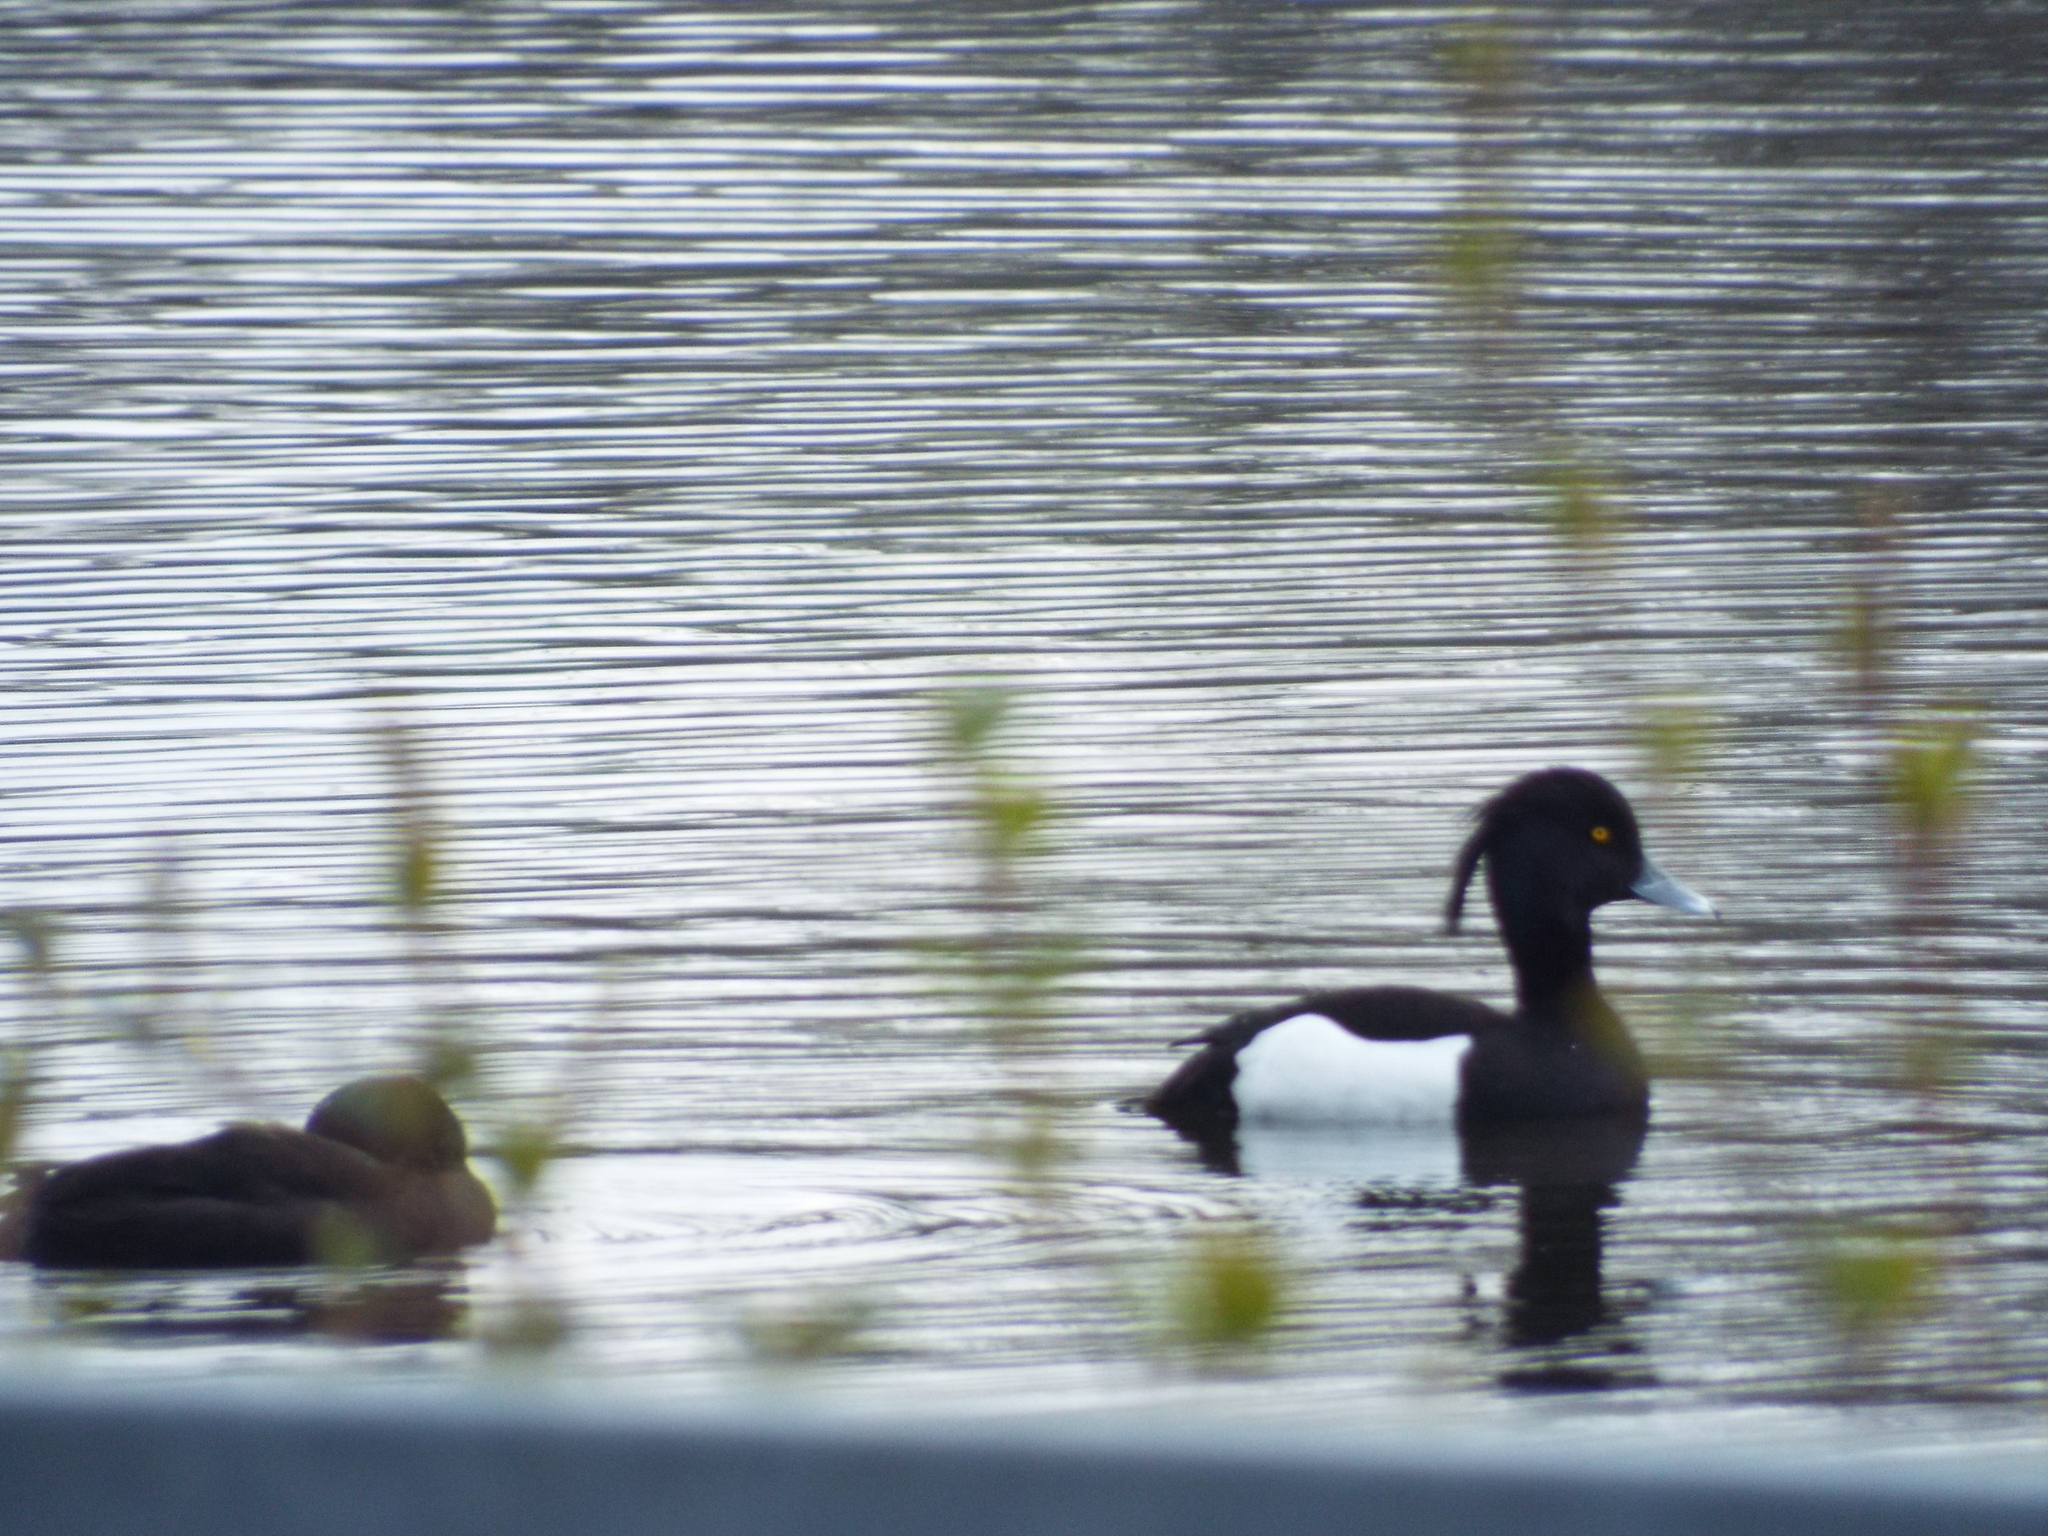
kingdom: Animalia
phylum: Chordata
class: Aves
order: Anseriformes
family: Anatidae
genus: Aythya
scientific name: Aythya fuligula
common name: Tufted duck
